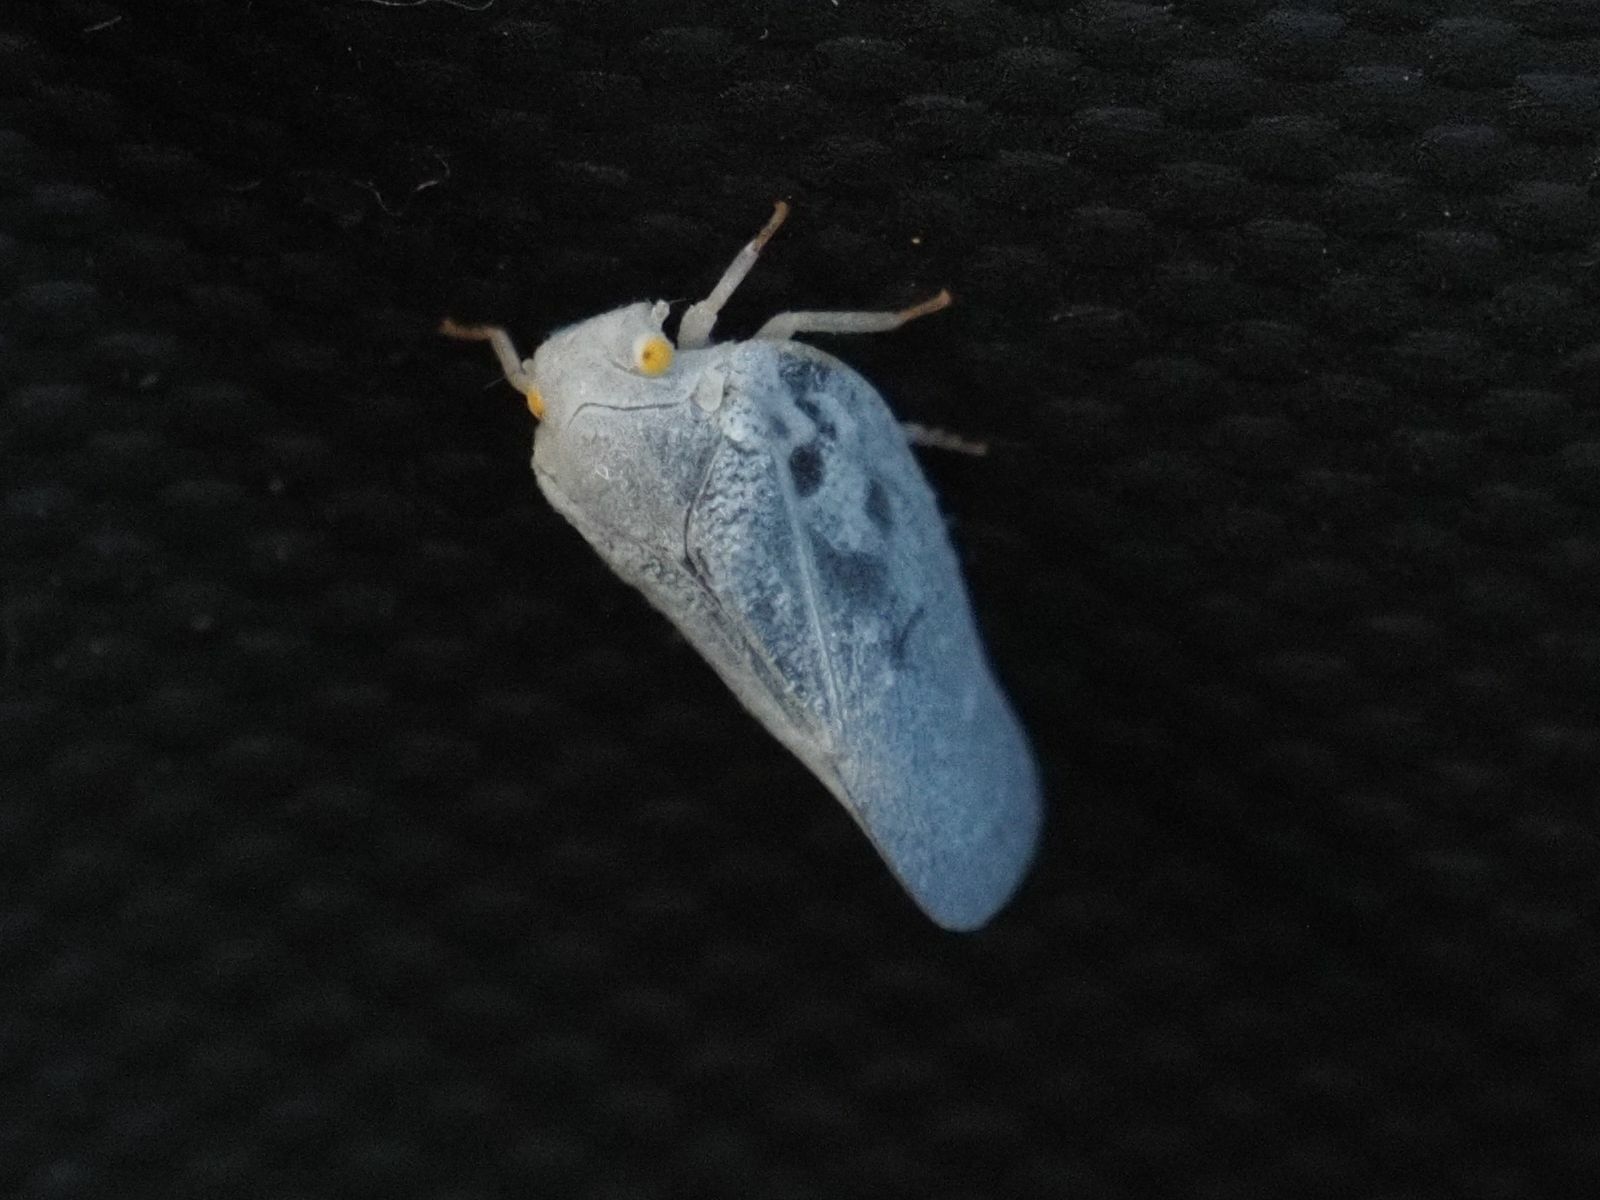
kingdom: Animalia
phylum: Arthropoda
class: Insecta
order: Hemiptera
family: Flatidae
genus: Metcalfa
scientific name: Metcalfa pruinosa
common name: Citrus flatid planthopper
